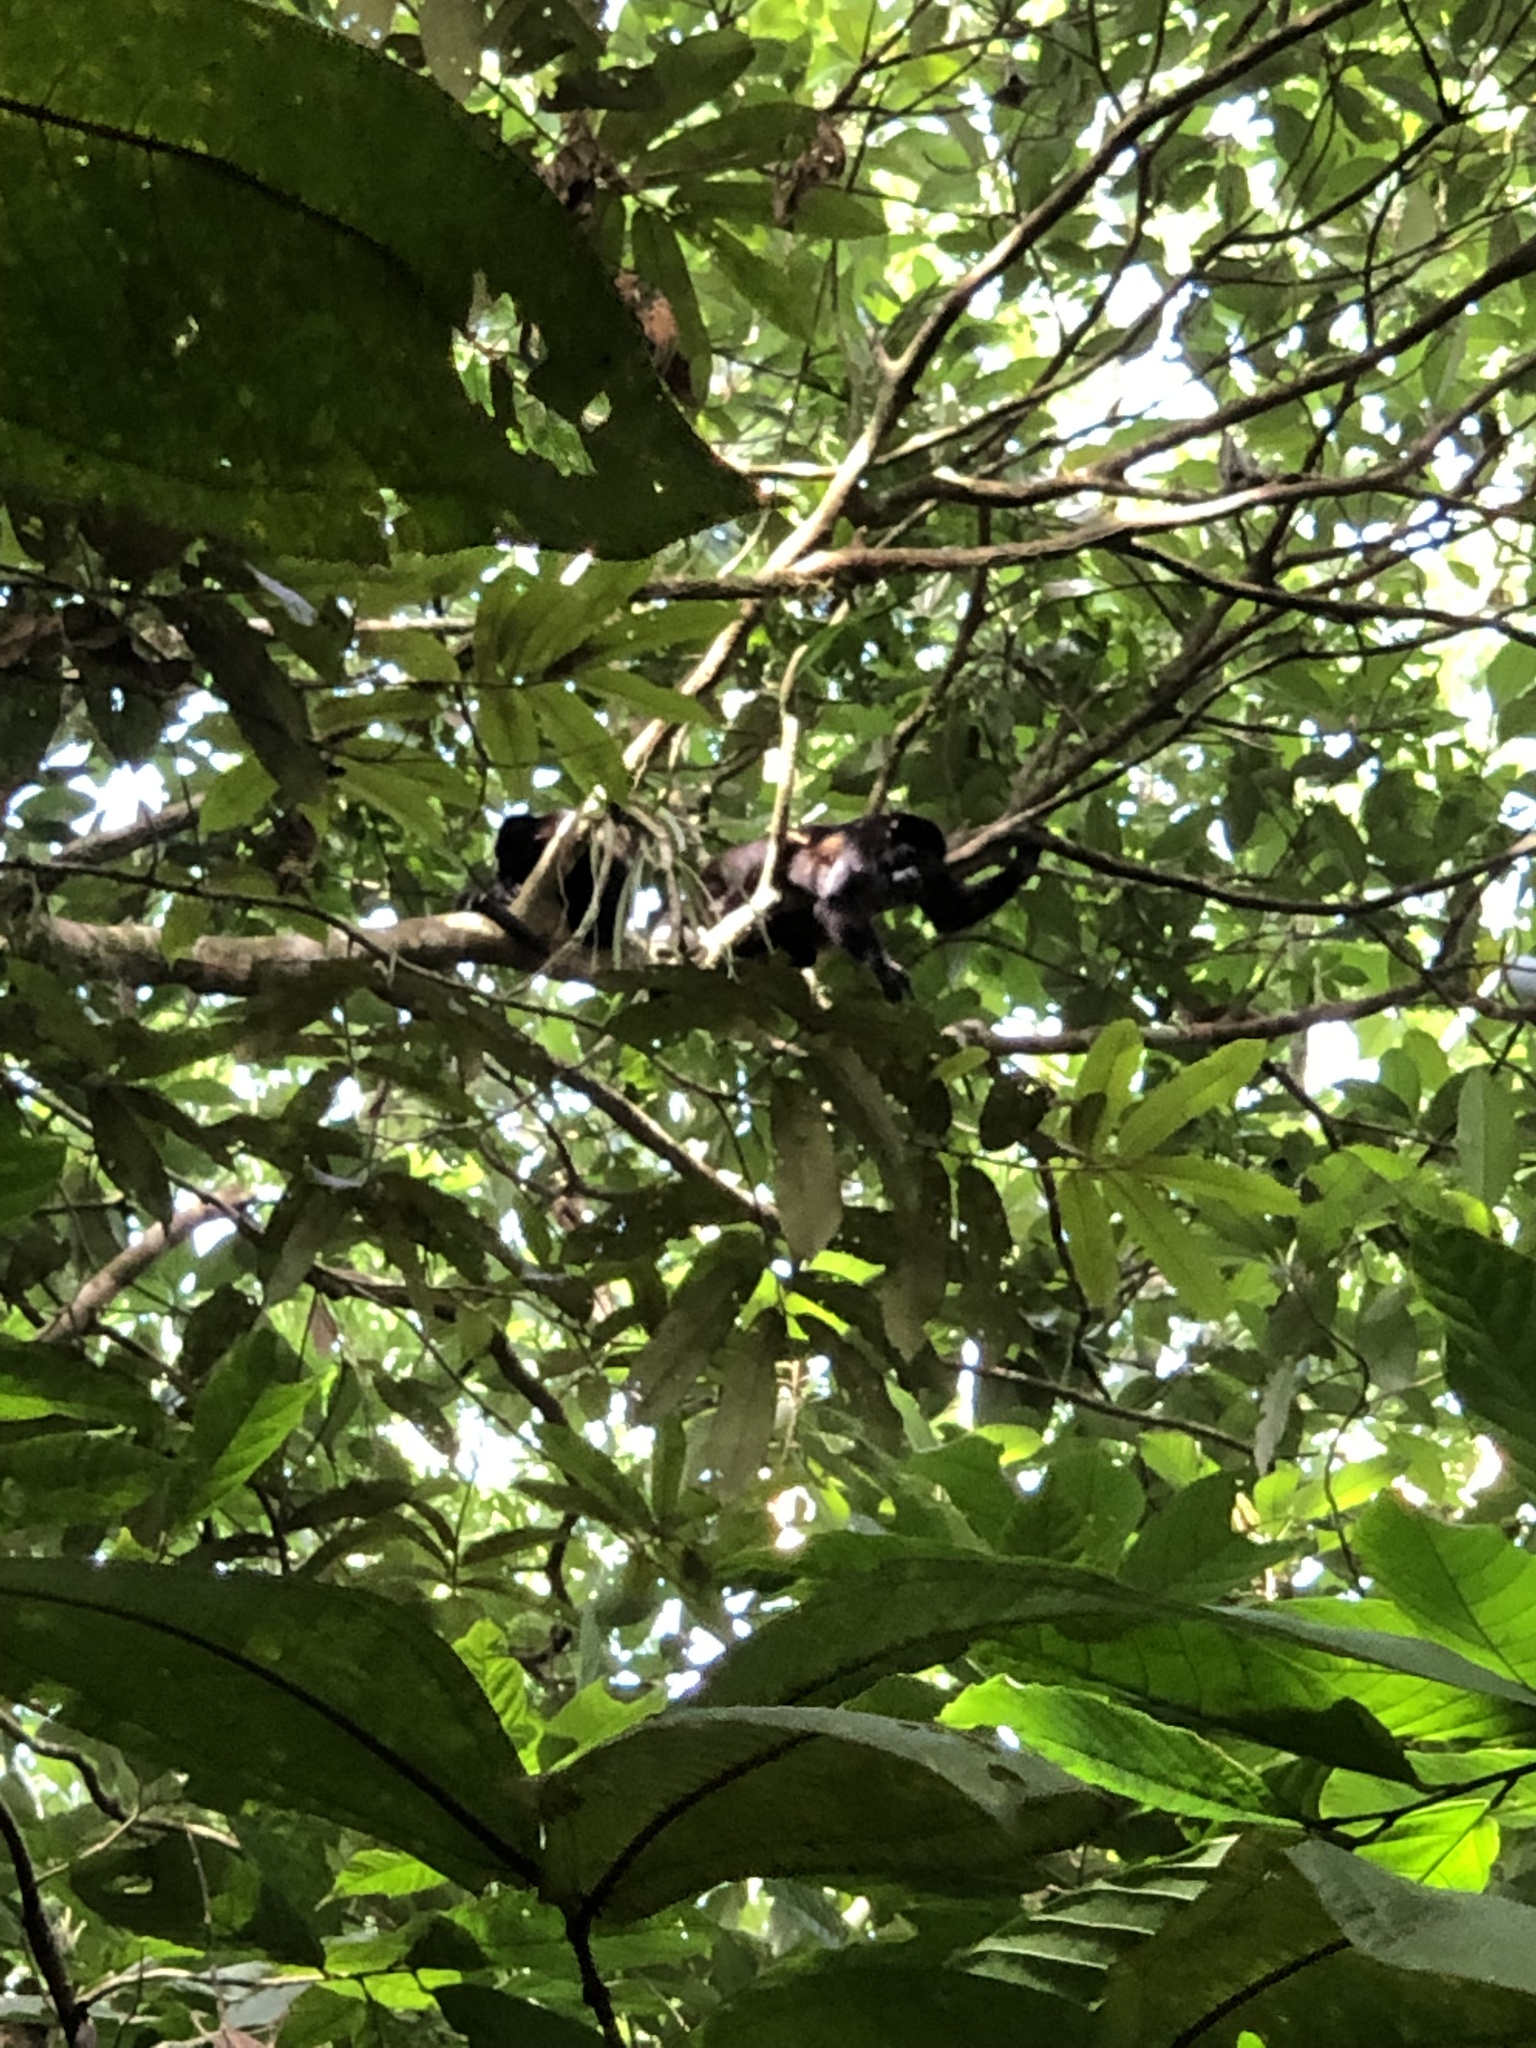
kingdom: Animalia
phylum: Chordata
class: Mammalia
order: Primates
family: Atelidae
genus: Alouatta
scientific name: Alouatta palliata
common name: Mantled howler
